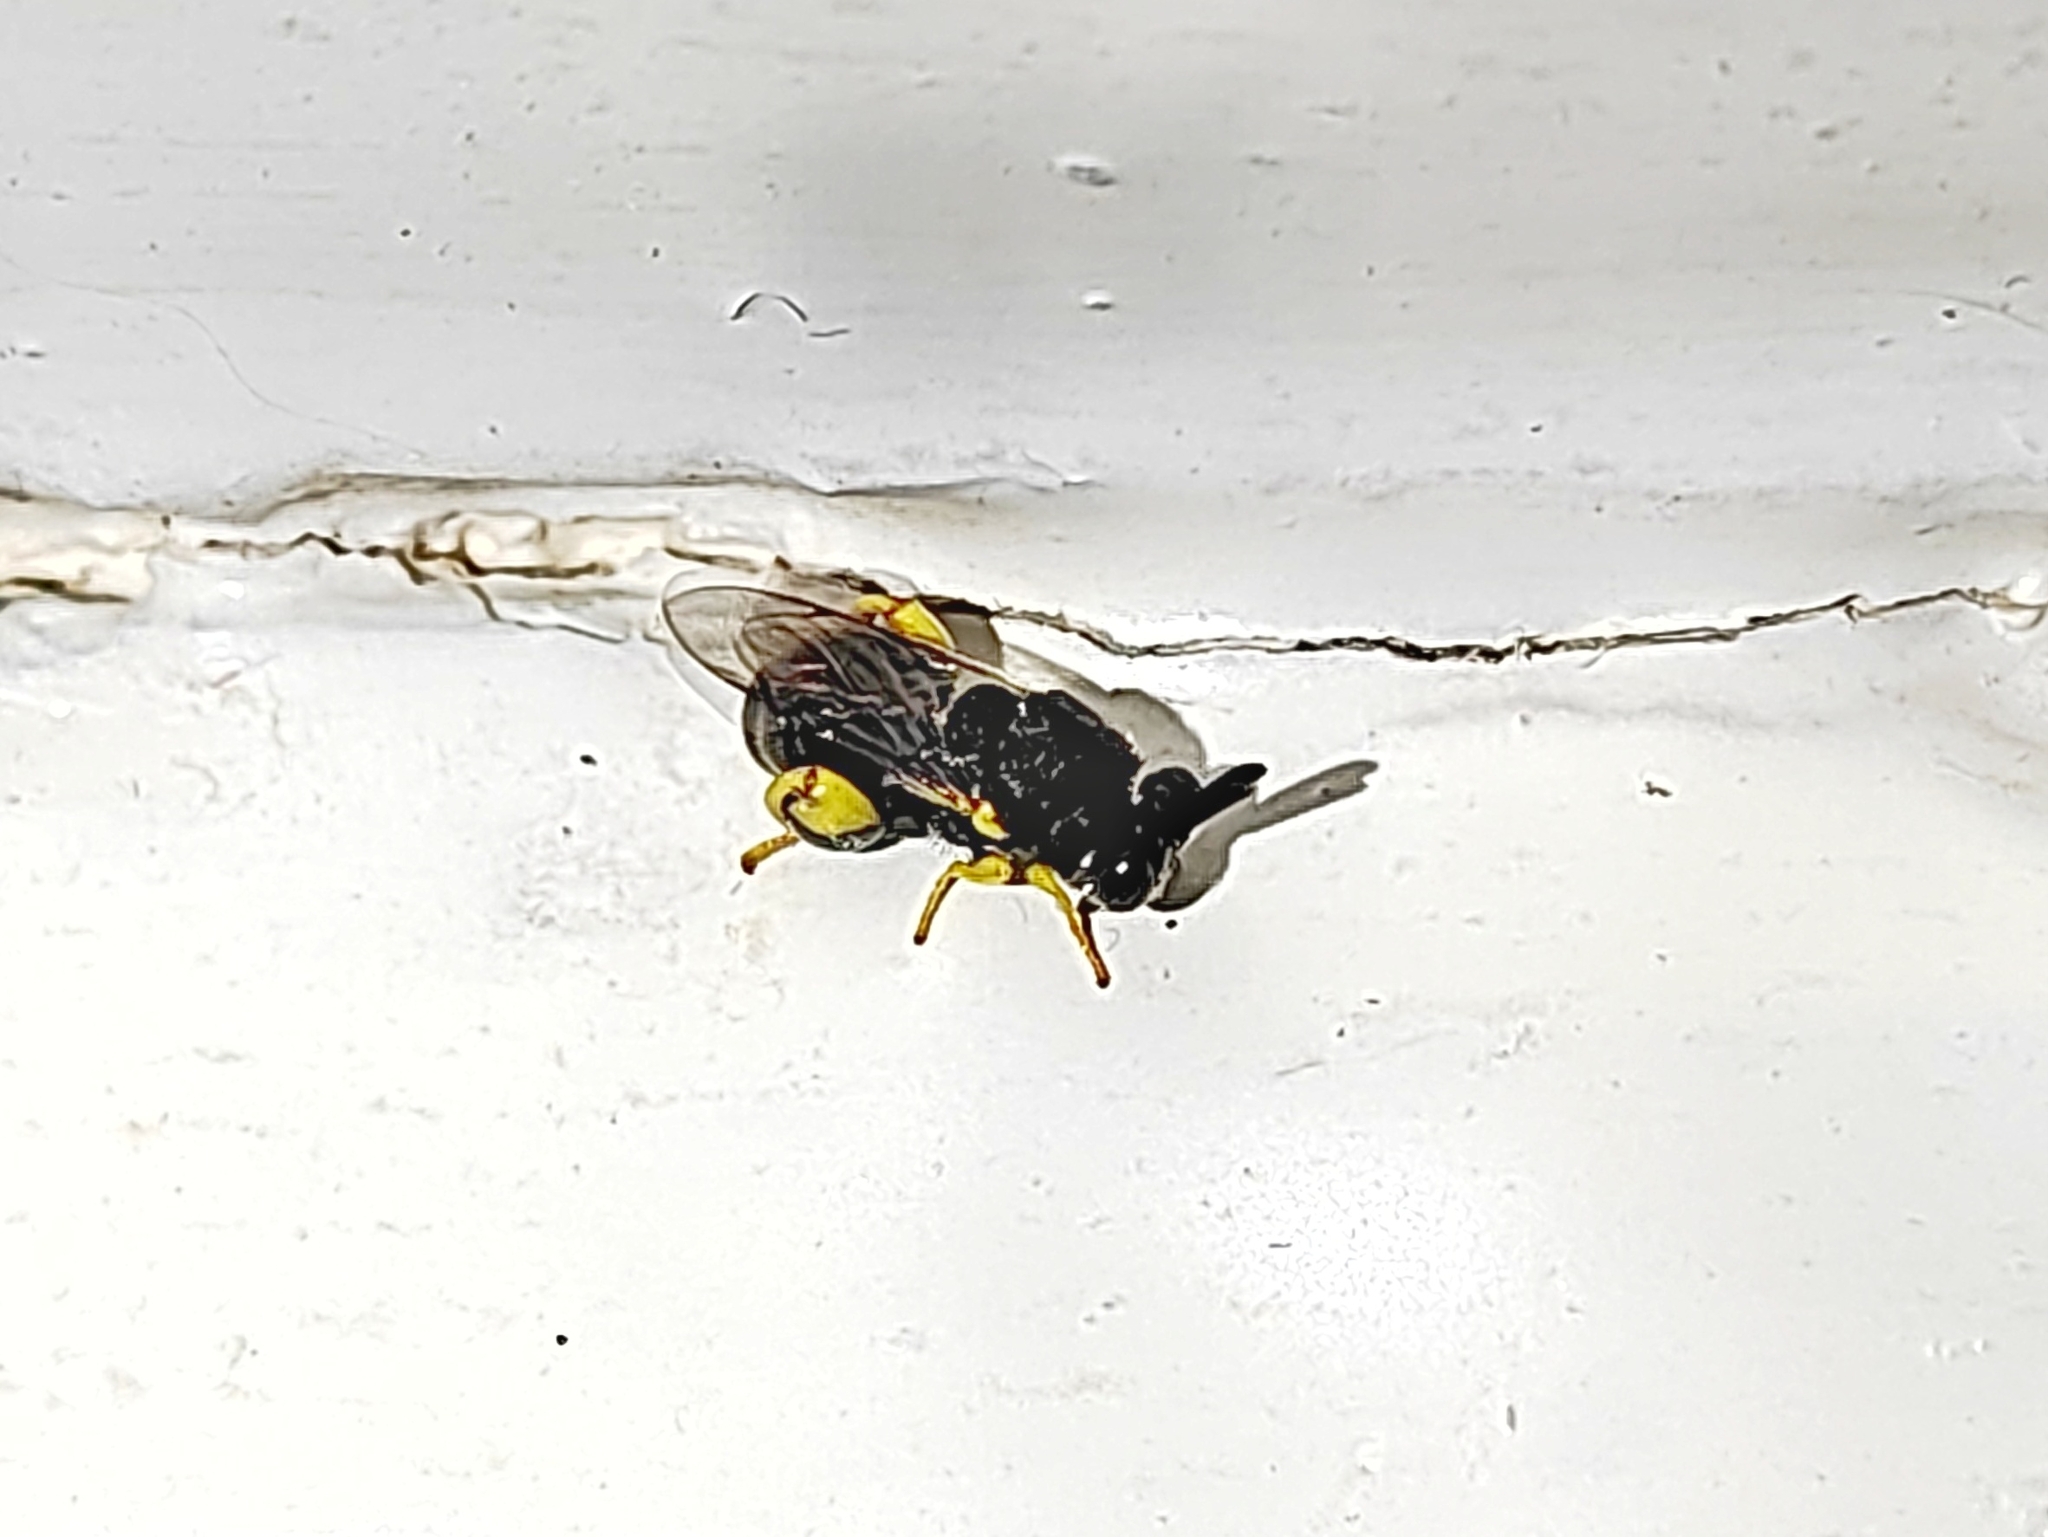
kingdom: Animalia
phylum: Arthropoda
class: Insecta
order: Hymenoptera
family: Chalcididae
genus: Brachymeria
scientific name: Brachymeria femorata
